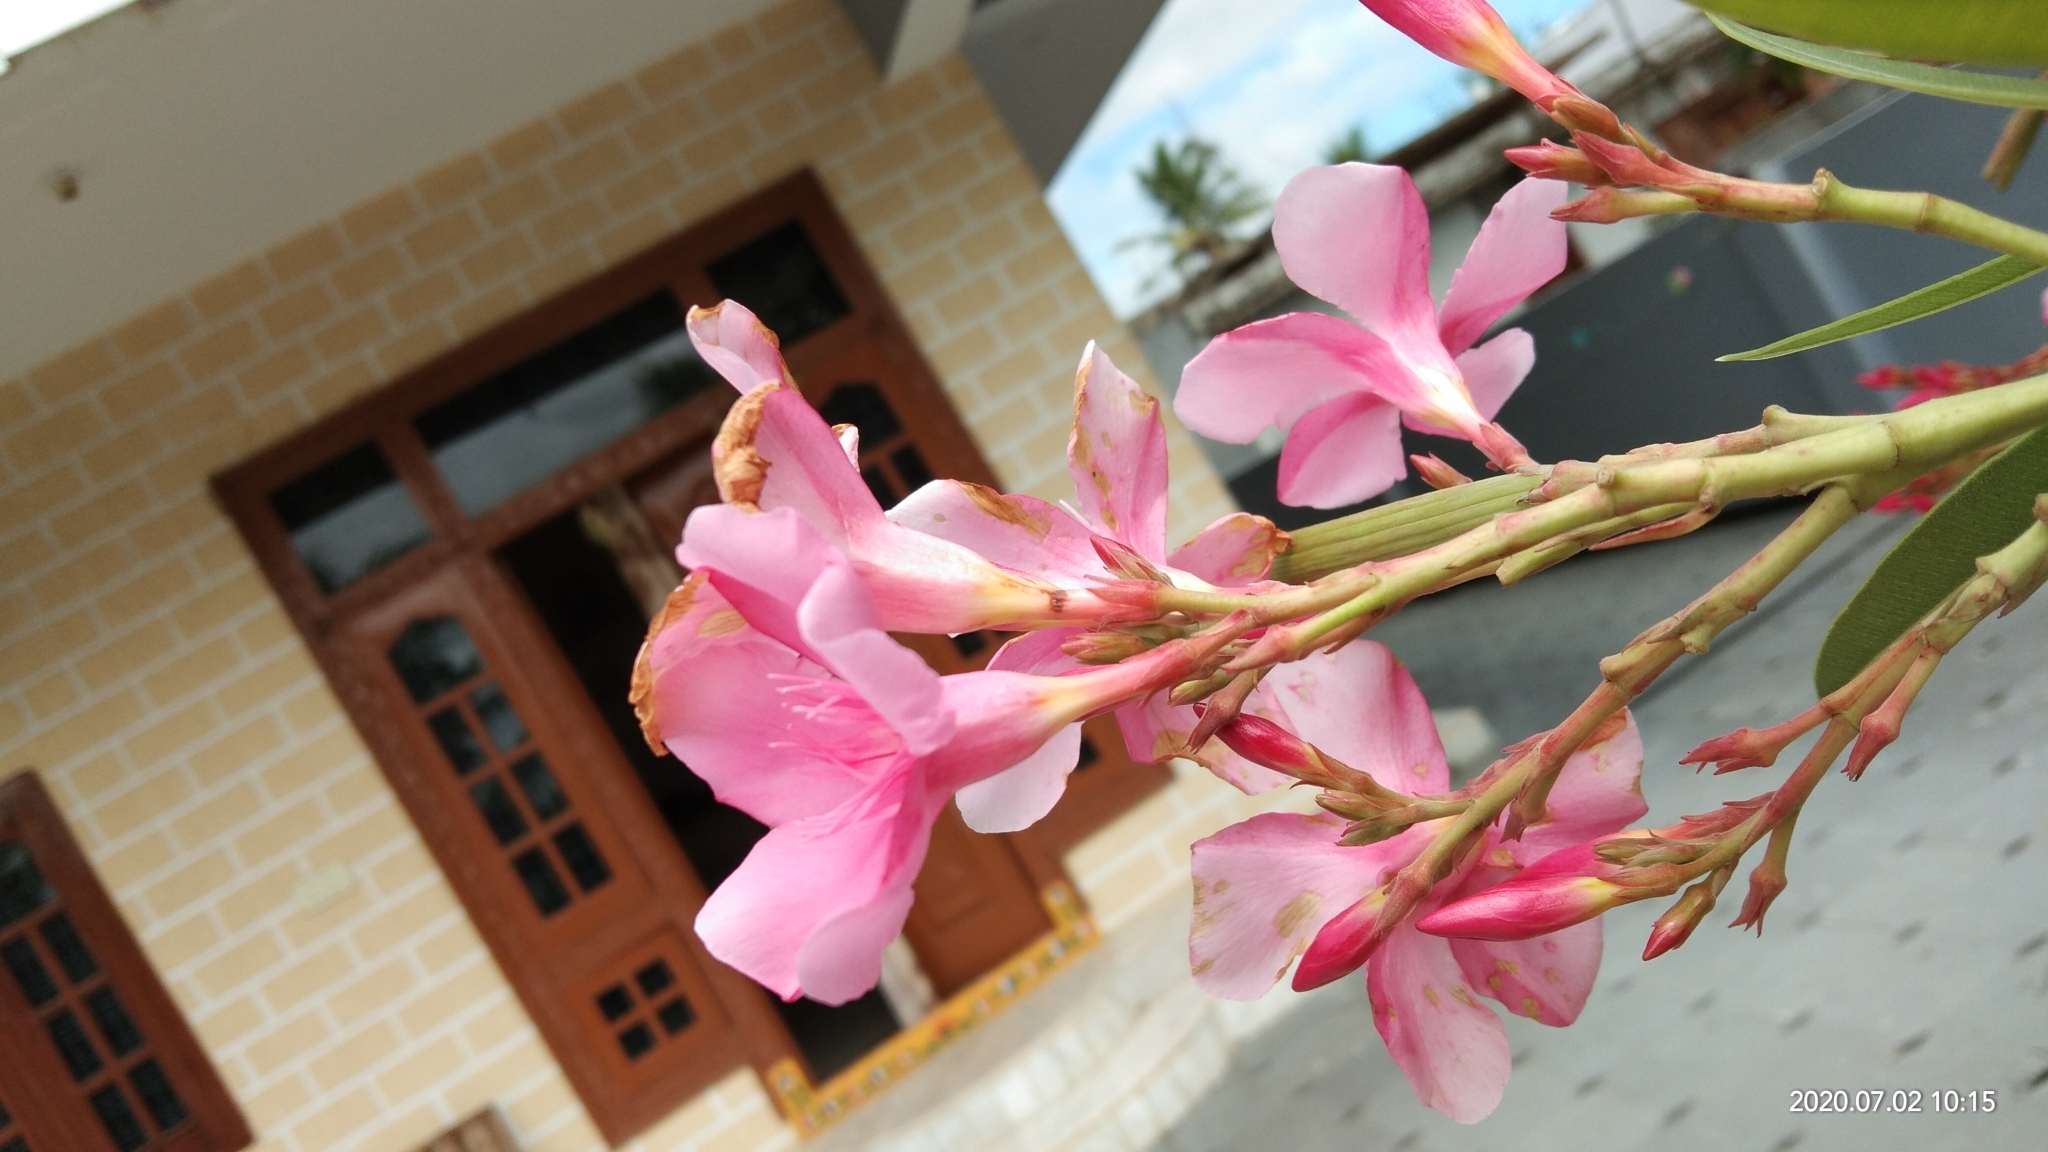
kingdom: Plantae
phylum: Tracheophyta
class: Magnoliopsida
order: Gentianales
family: Apocynaceae
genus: Nerium
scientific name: Nerium oleander
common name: Oleander
